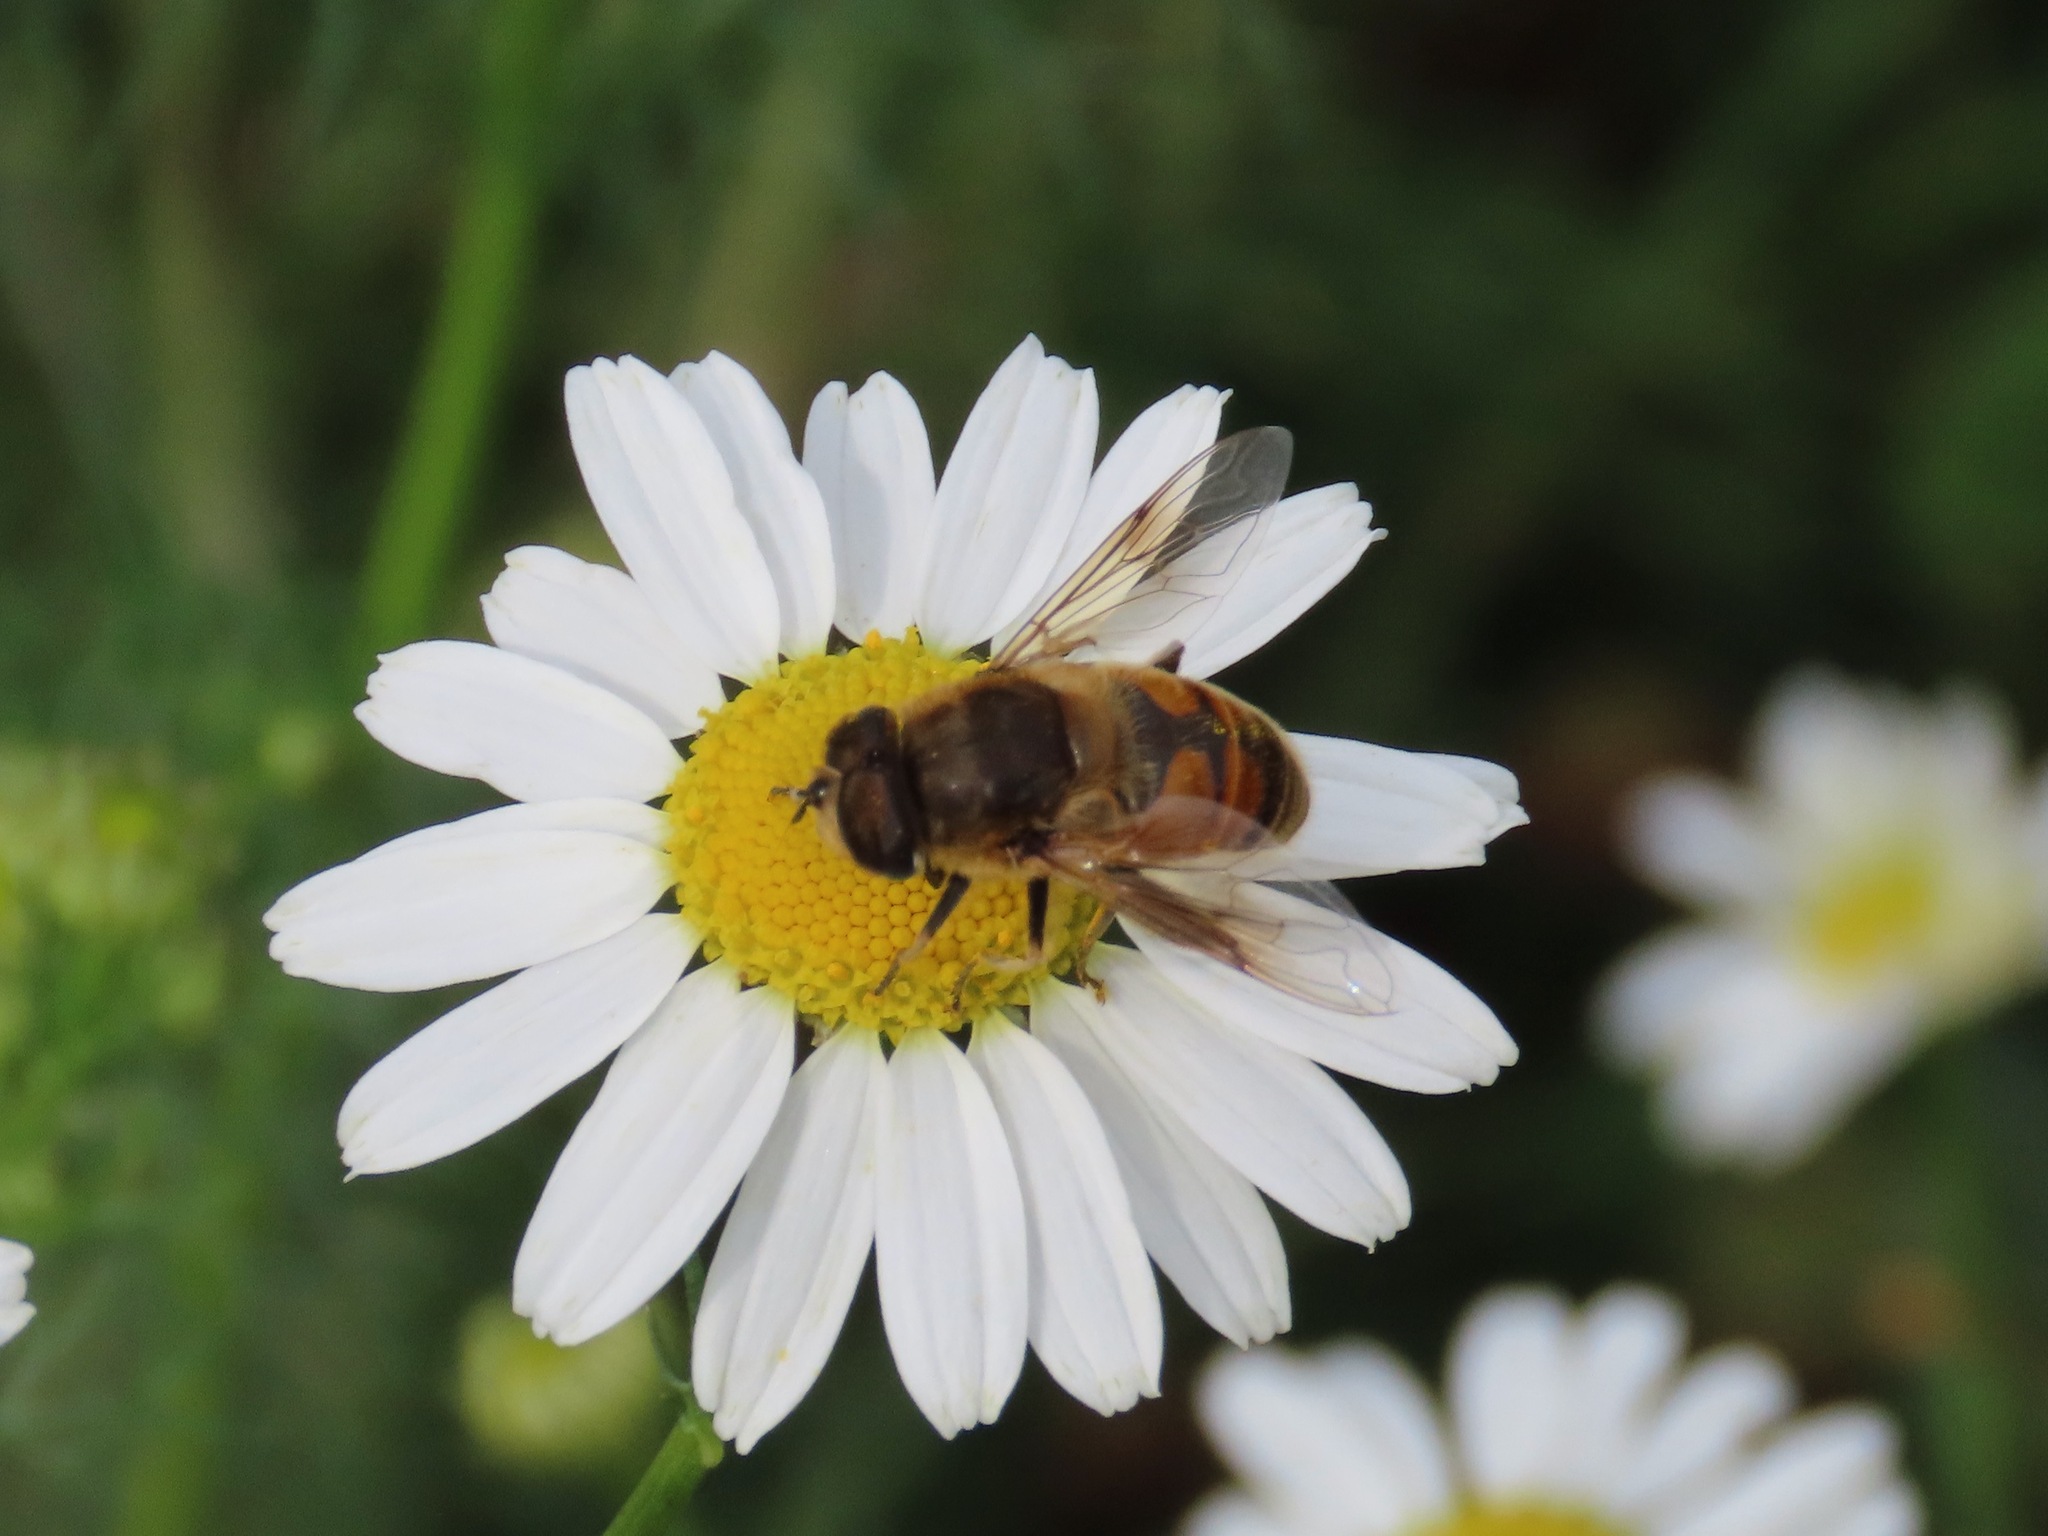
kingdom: Animalia
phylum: Arthropoda
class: Insecta
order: Diptera
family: Syrphidae
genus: Eristalis
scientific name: Eristalis tenax
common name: Drone fly
